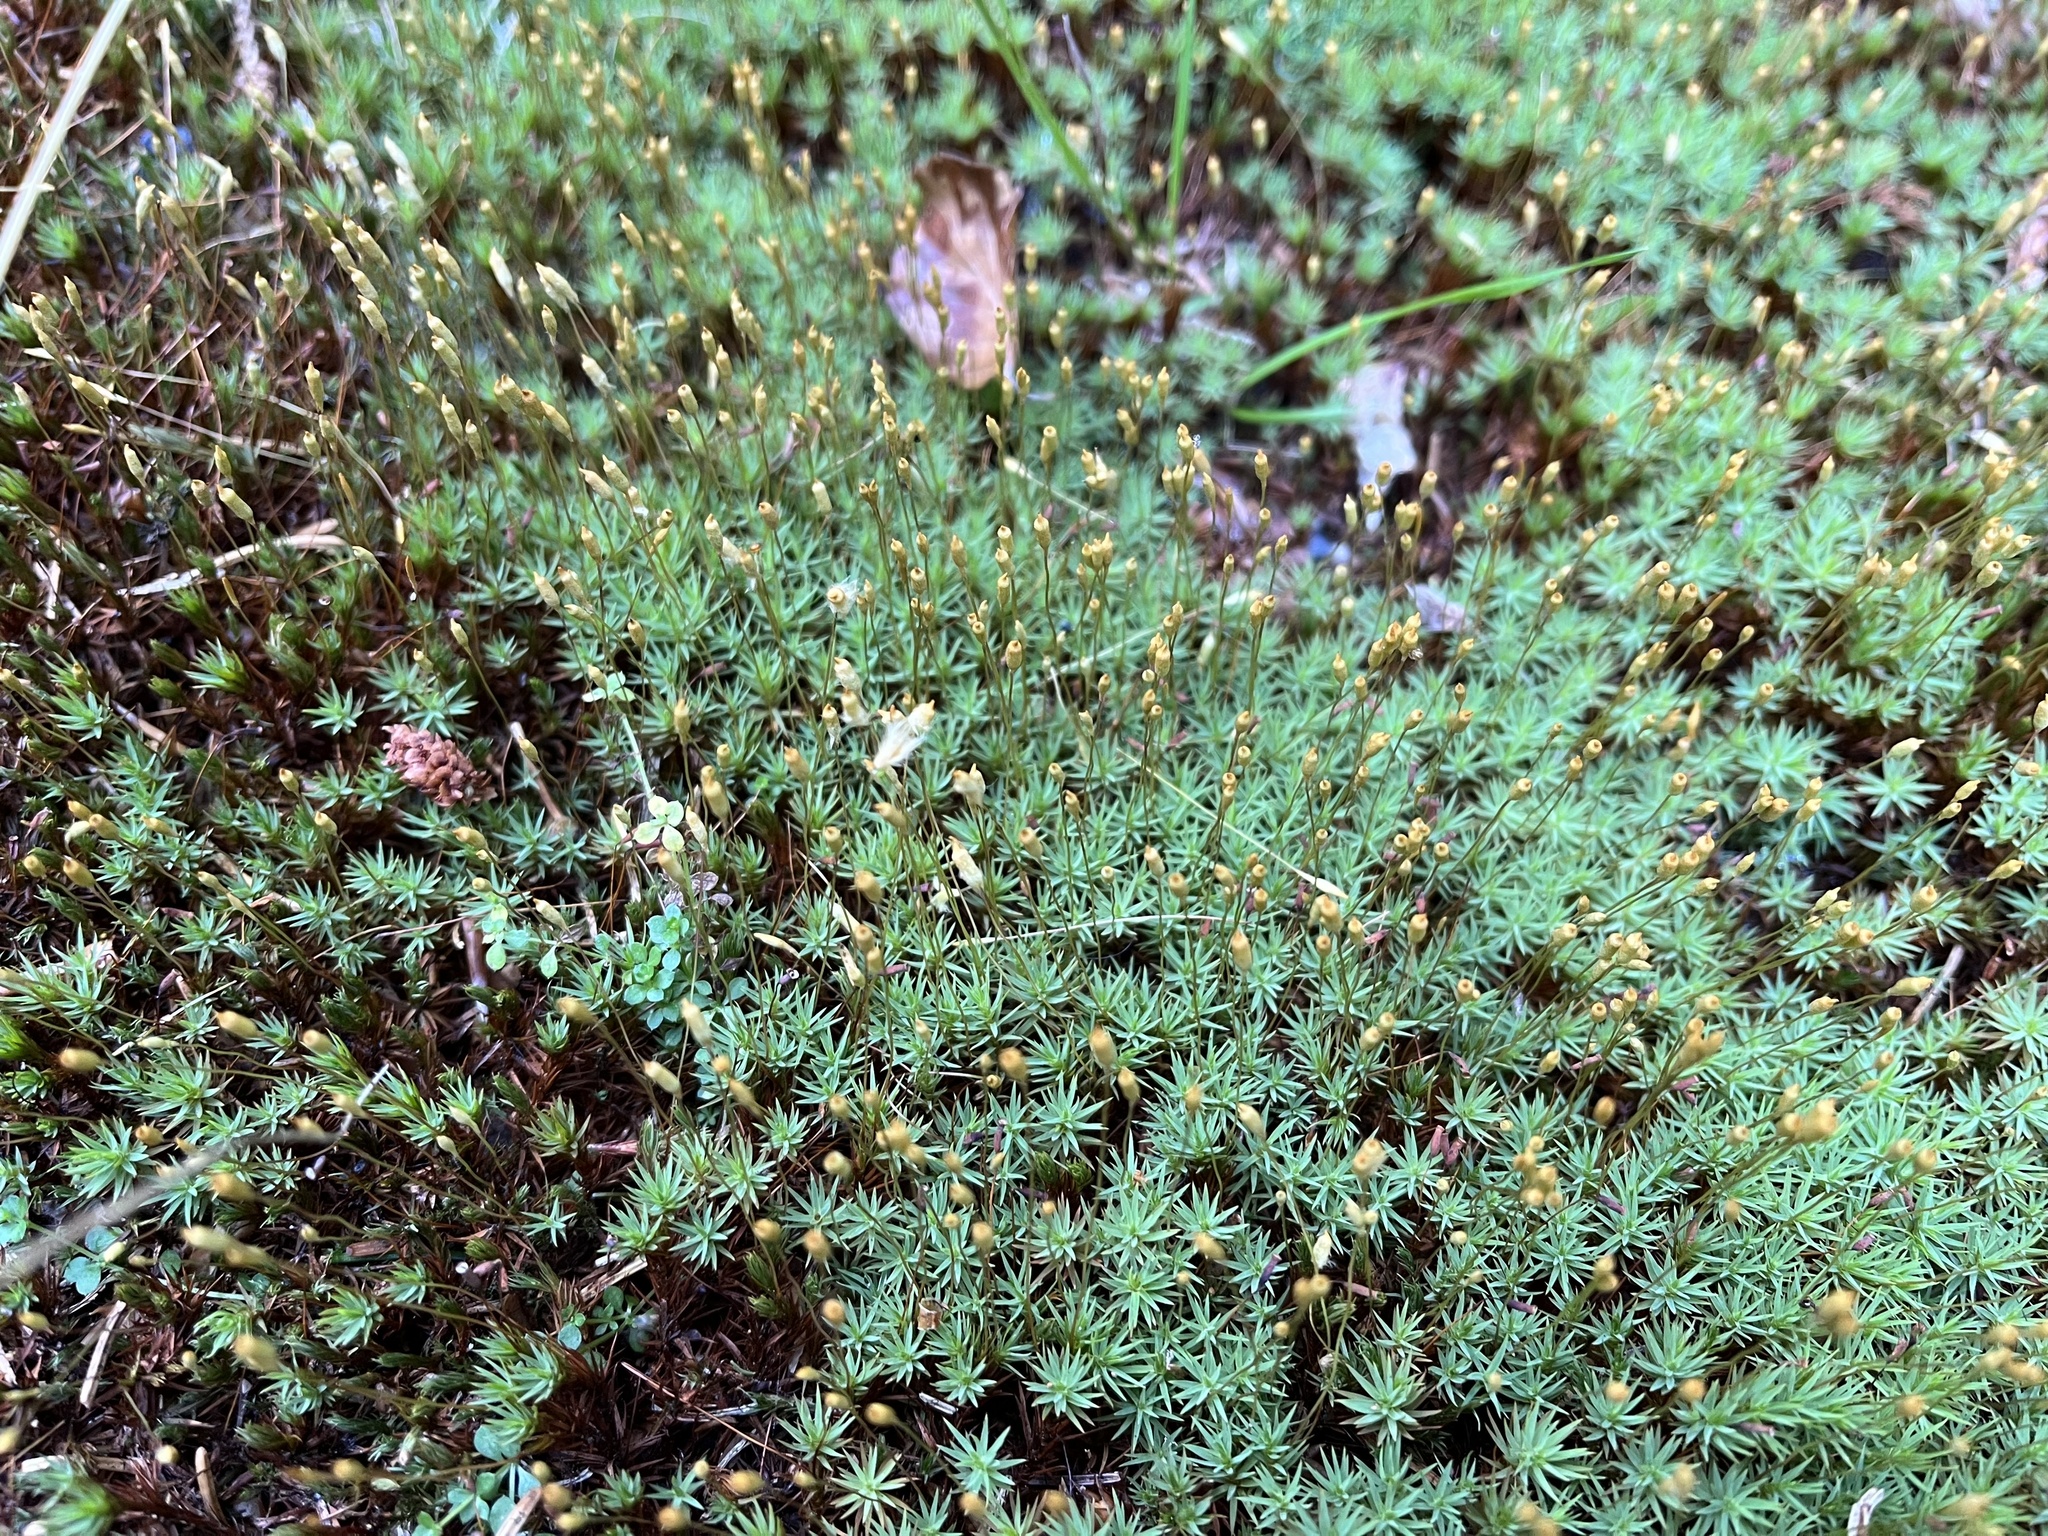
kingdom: Plantae
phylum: Bryophyta
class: Polytrichopsida
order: Polytrichales
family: Polytrichaceae
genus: Pogonatum
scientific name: Pogonatum urnigerum
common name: Urn hair moss
